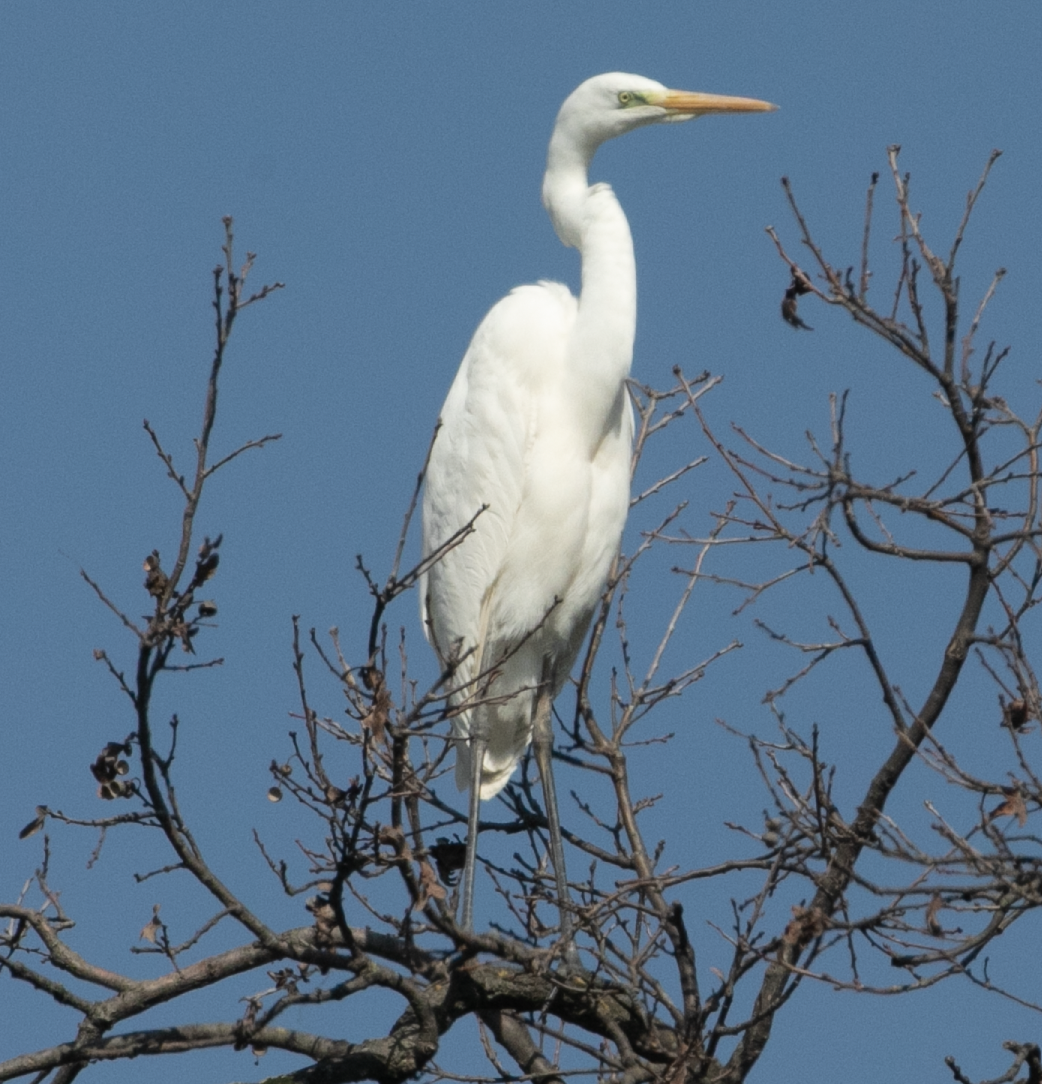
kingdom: Animalia
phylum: Chordata
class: Aves
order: Pelecaniformes
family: Ardeidae
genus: Ardea
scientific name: Ardea alba
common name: Great egret
